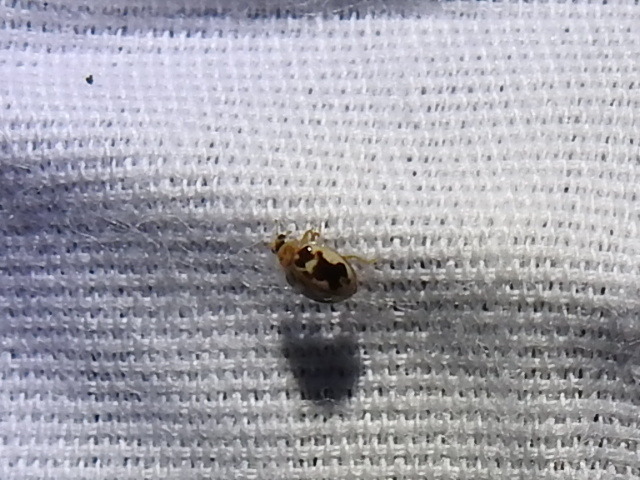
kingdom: Animalia
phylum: Arthropoda
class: Insecta
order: Coleoptera
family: Coccinellidae
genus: Psyllobora
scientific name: Psyllobora renifer
